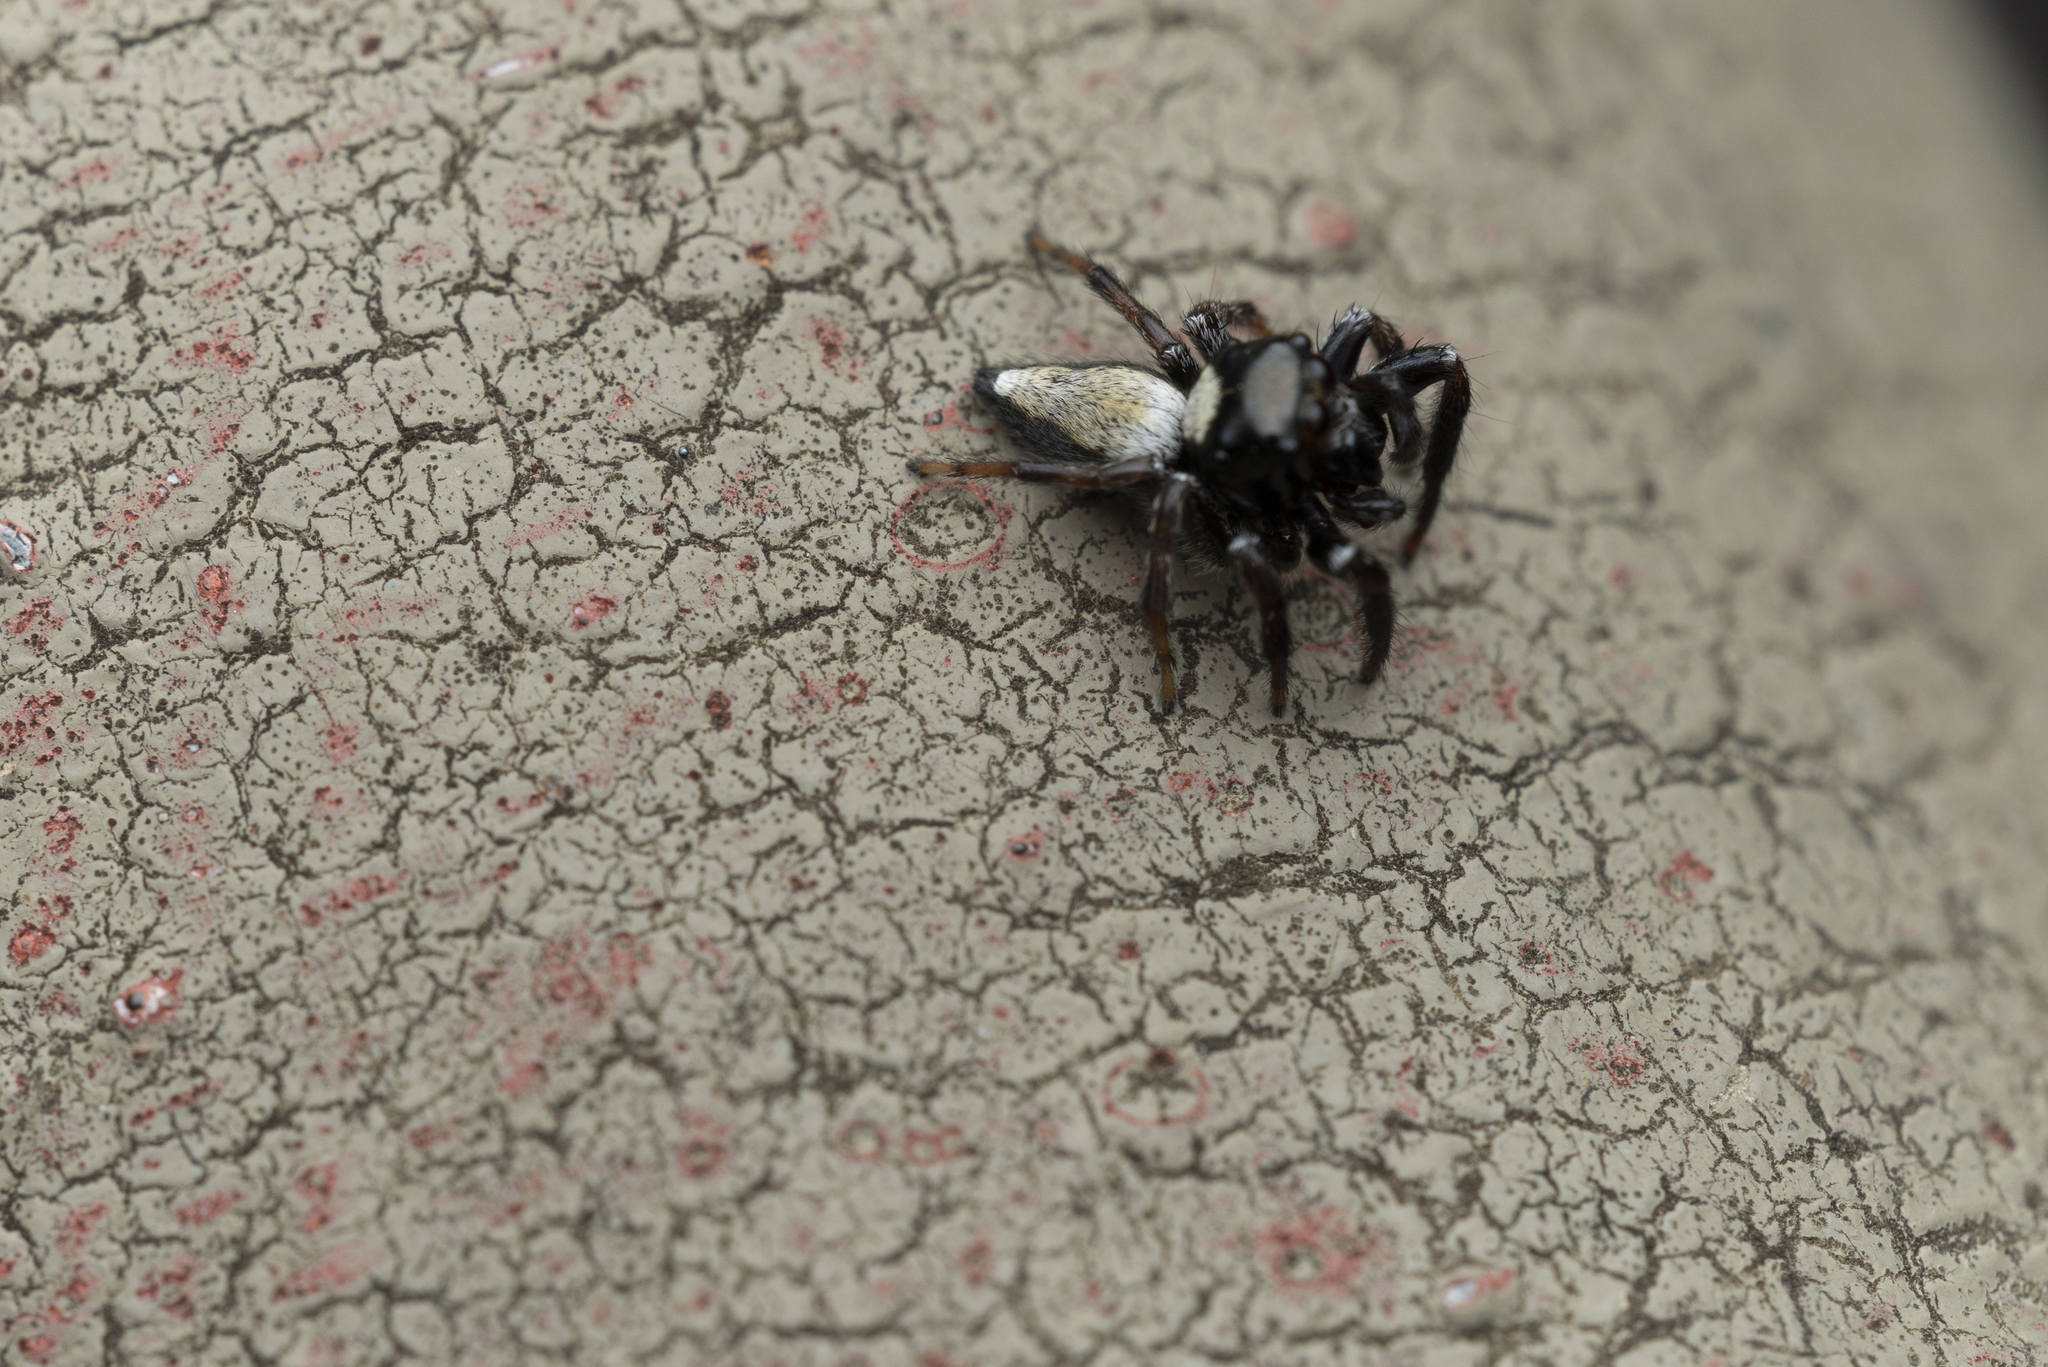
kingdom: Animalia
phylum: Arthropoda
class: Arachnida
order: Araneae
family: Salticidae
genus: Ptocasius
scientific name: Ptocasius strupifer
